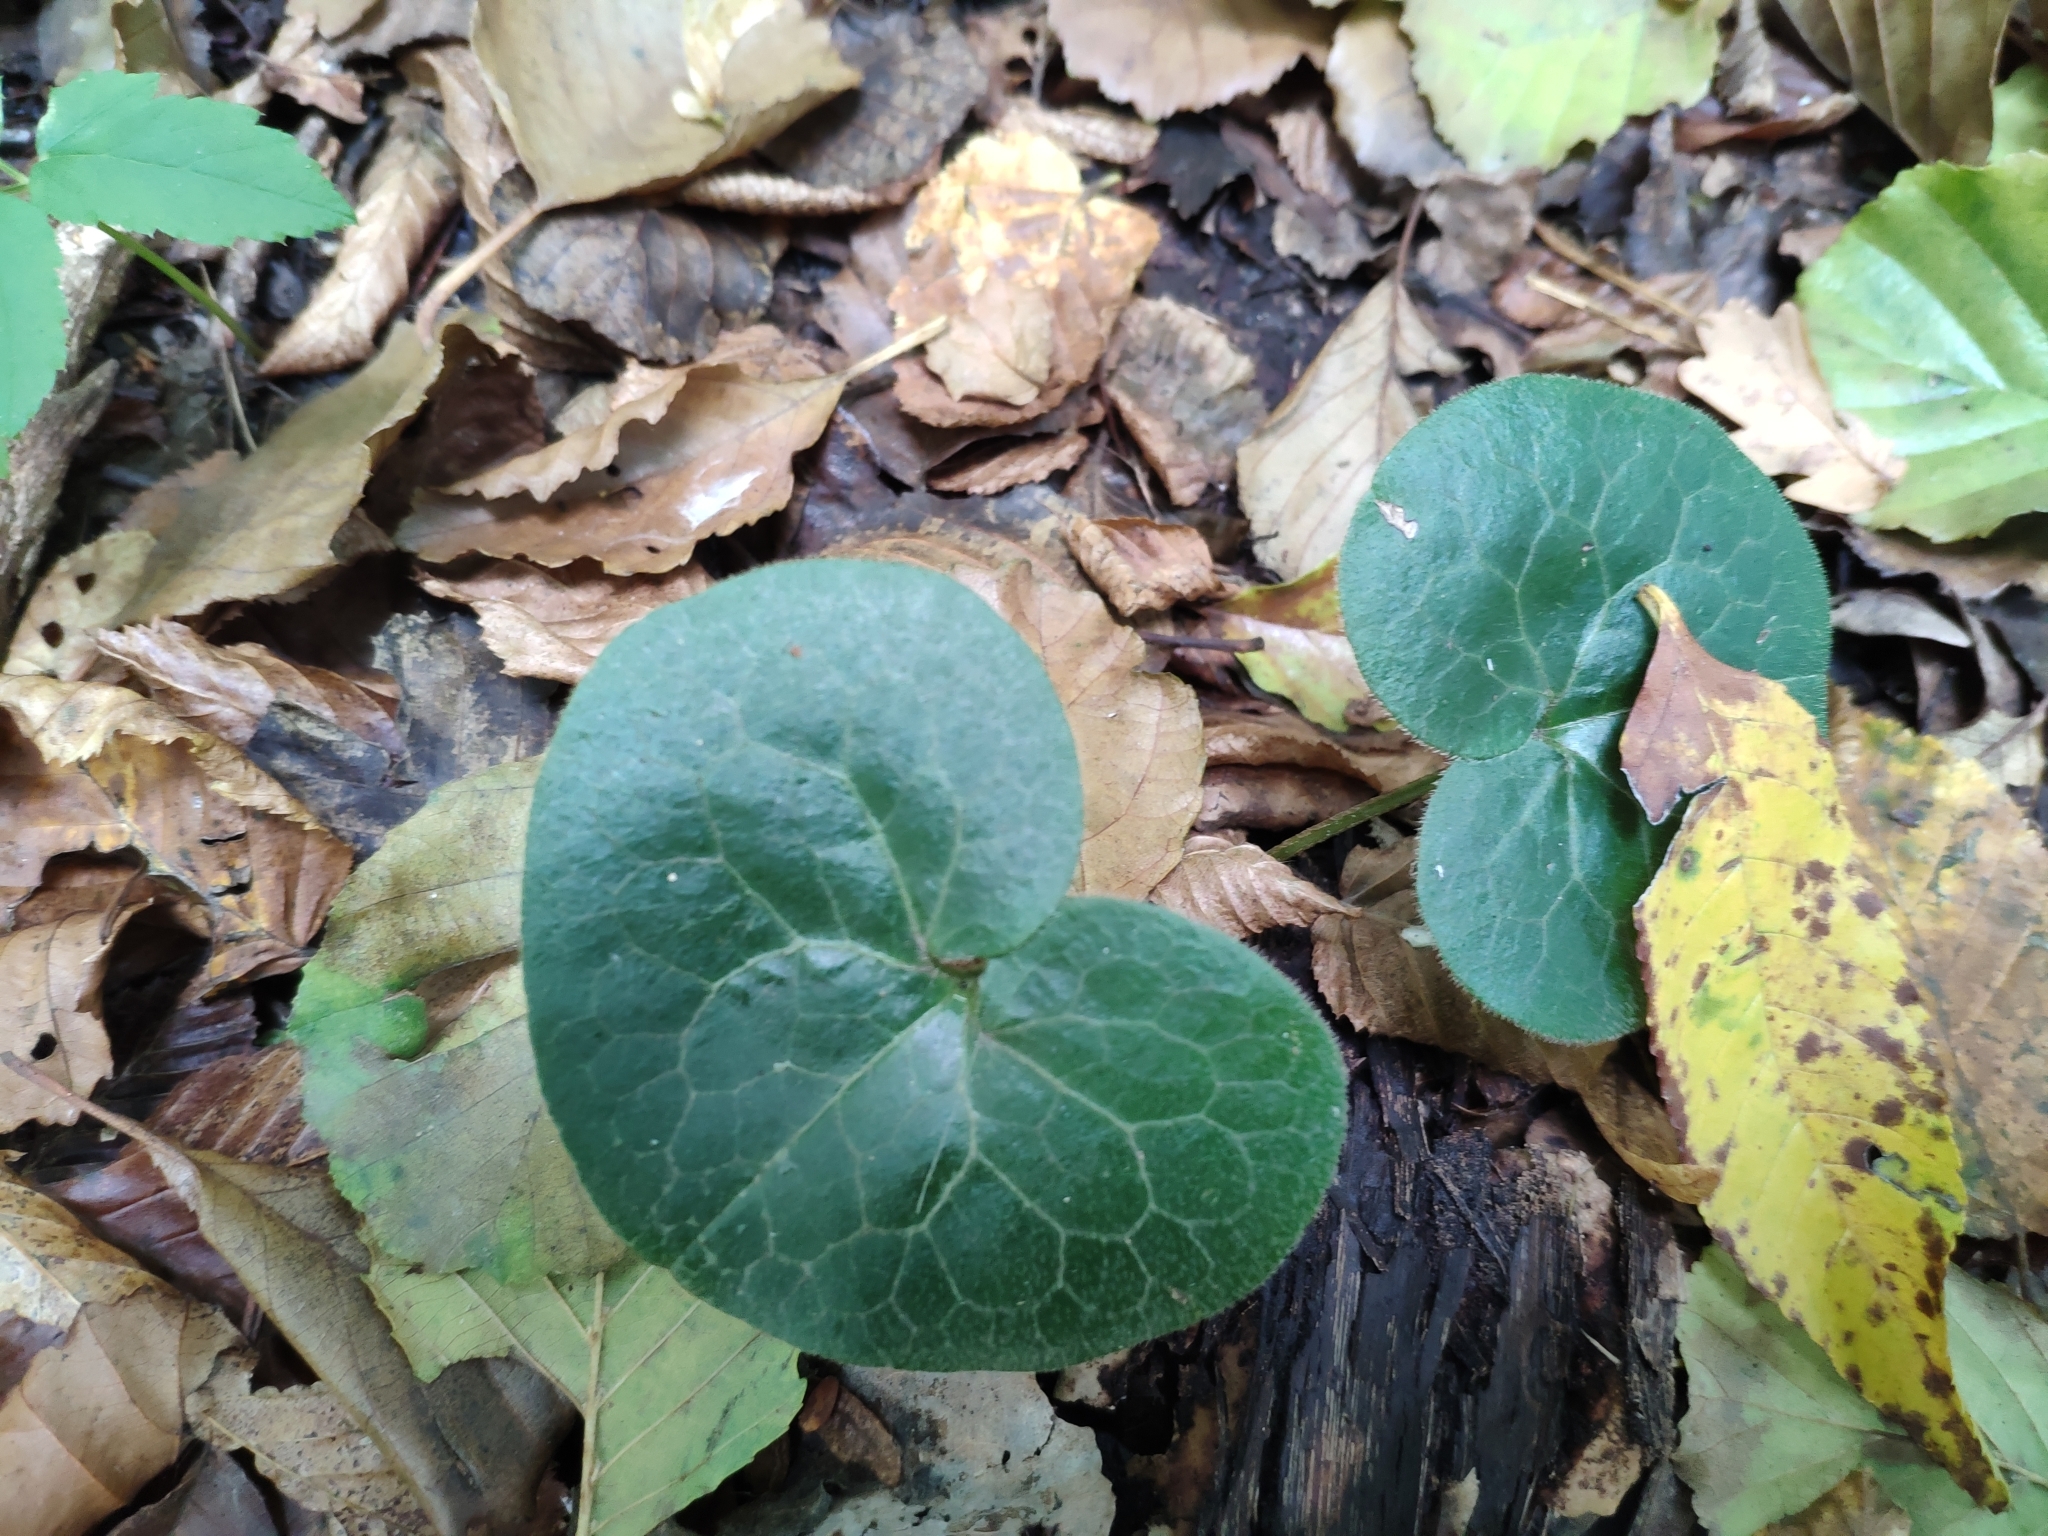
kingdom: Plantae
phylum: Tracheophyta
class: Magnoliopsida
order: Piperales
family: Aristolochiaceae
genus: Asarum
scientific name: Asarum europaeum
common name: Asarabacca
